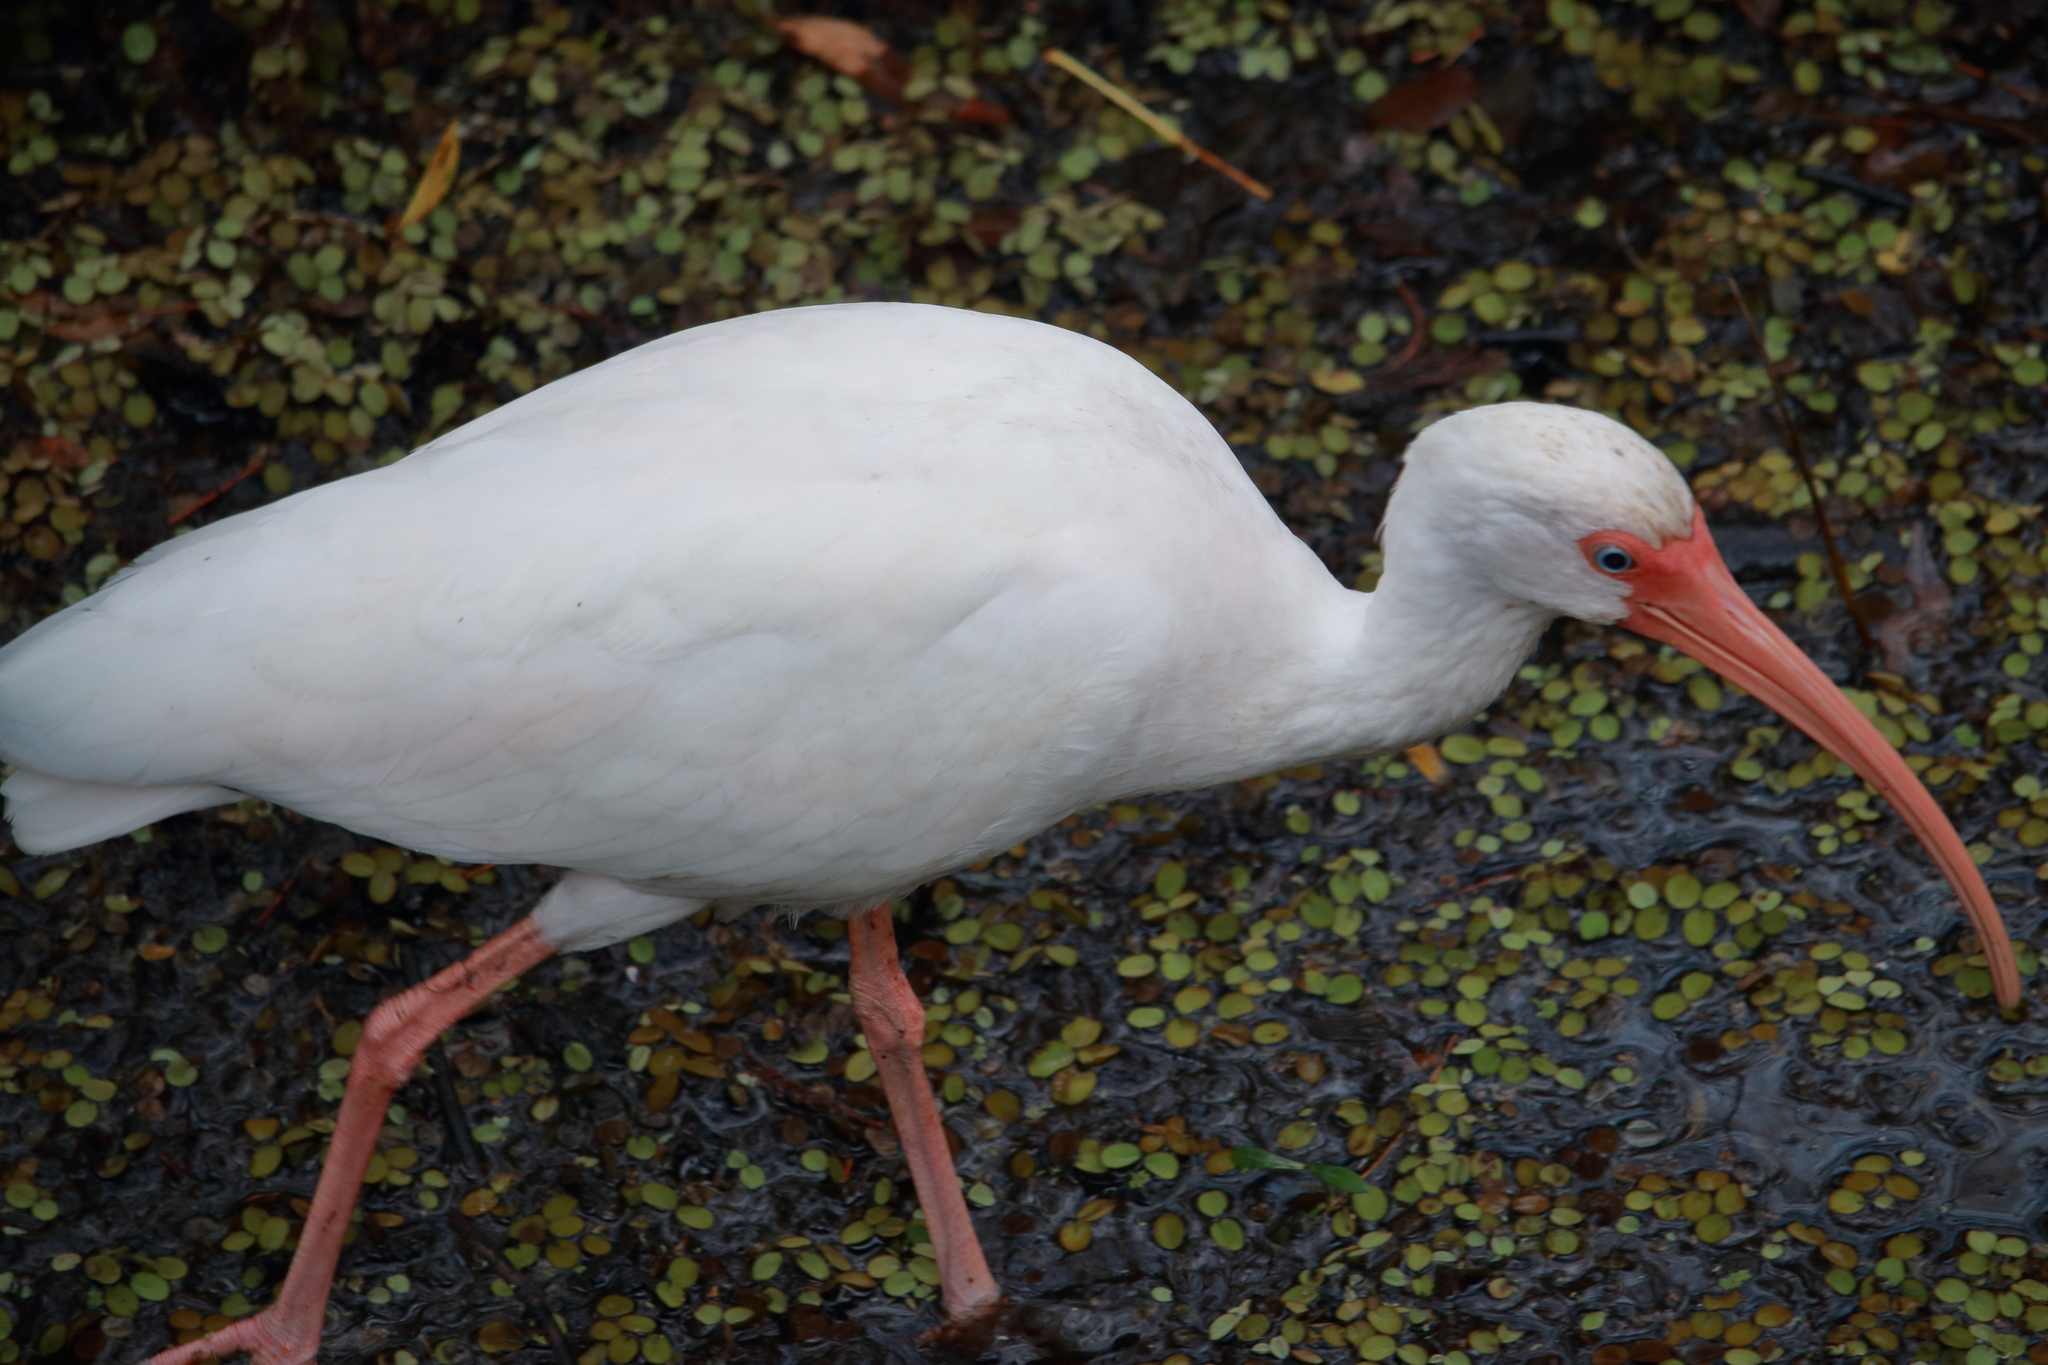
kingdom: Animalia
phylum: Chordata
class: Aves
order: Pelecaniformes
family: Threskiornithidae
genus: Eudocimus
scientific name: Eudocimus albus
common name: White ibis
